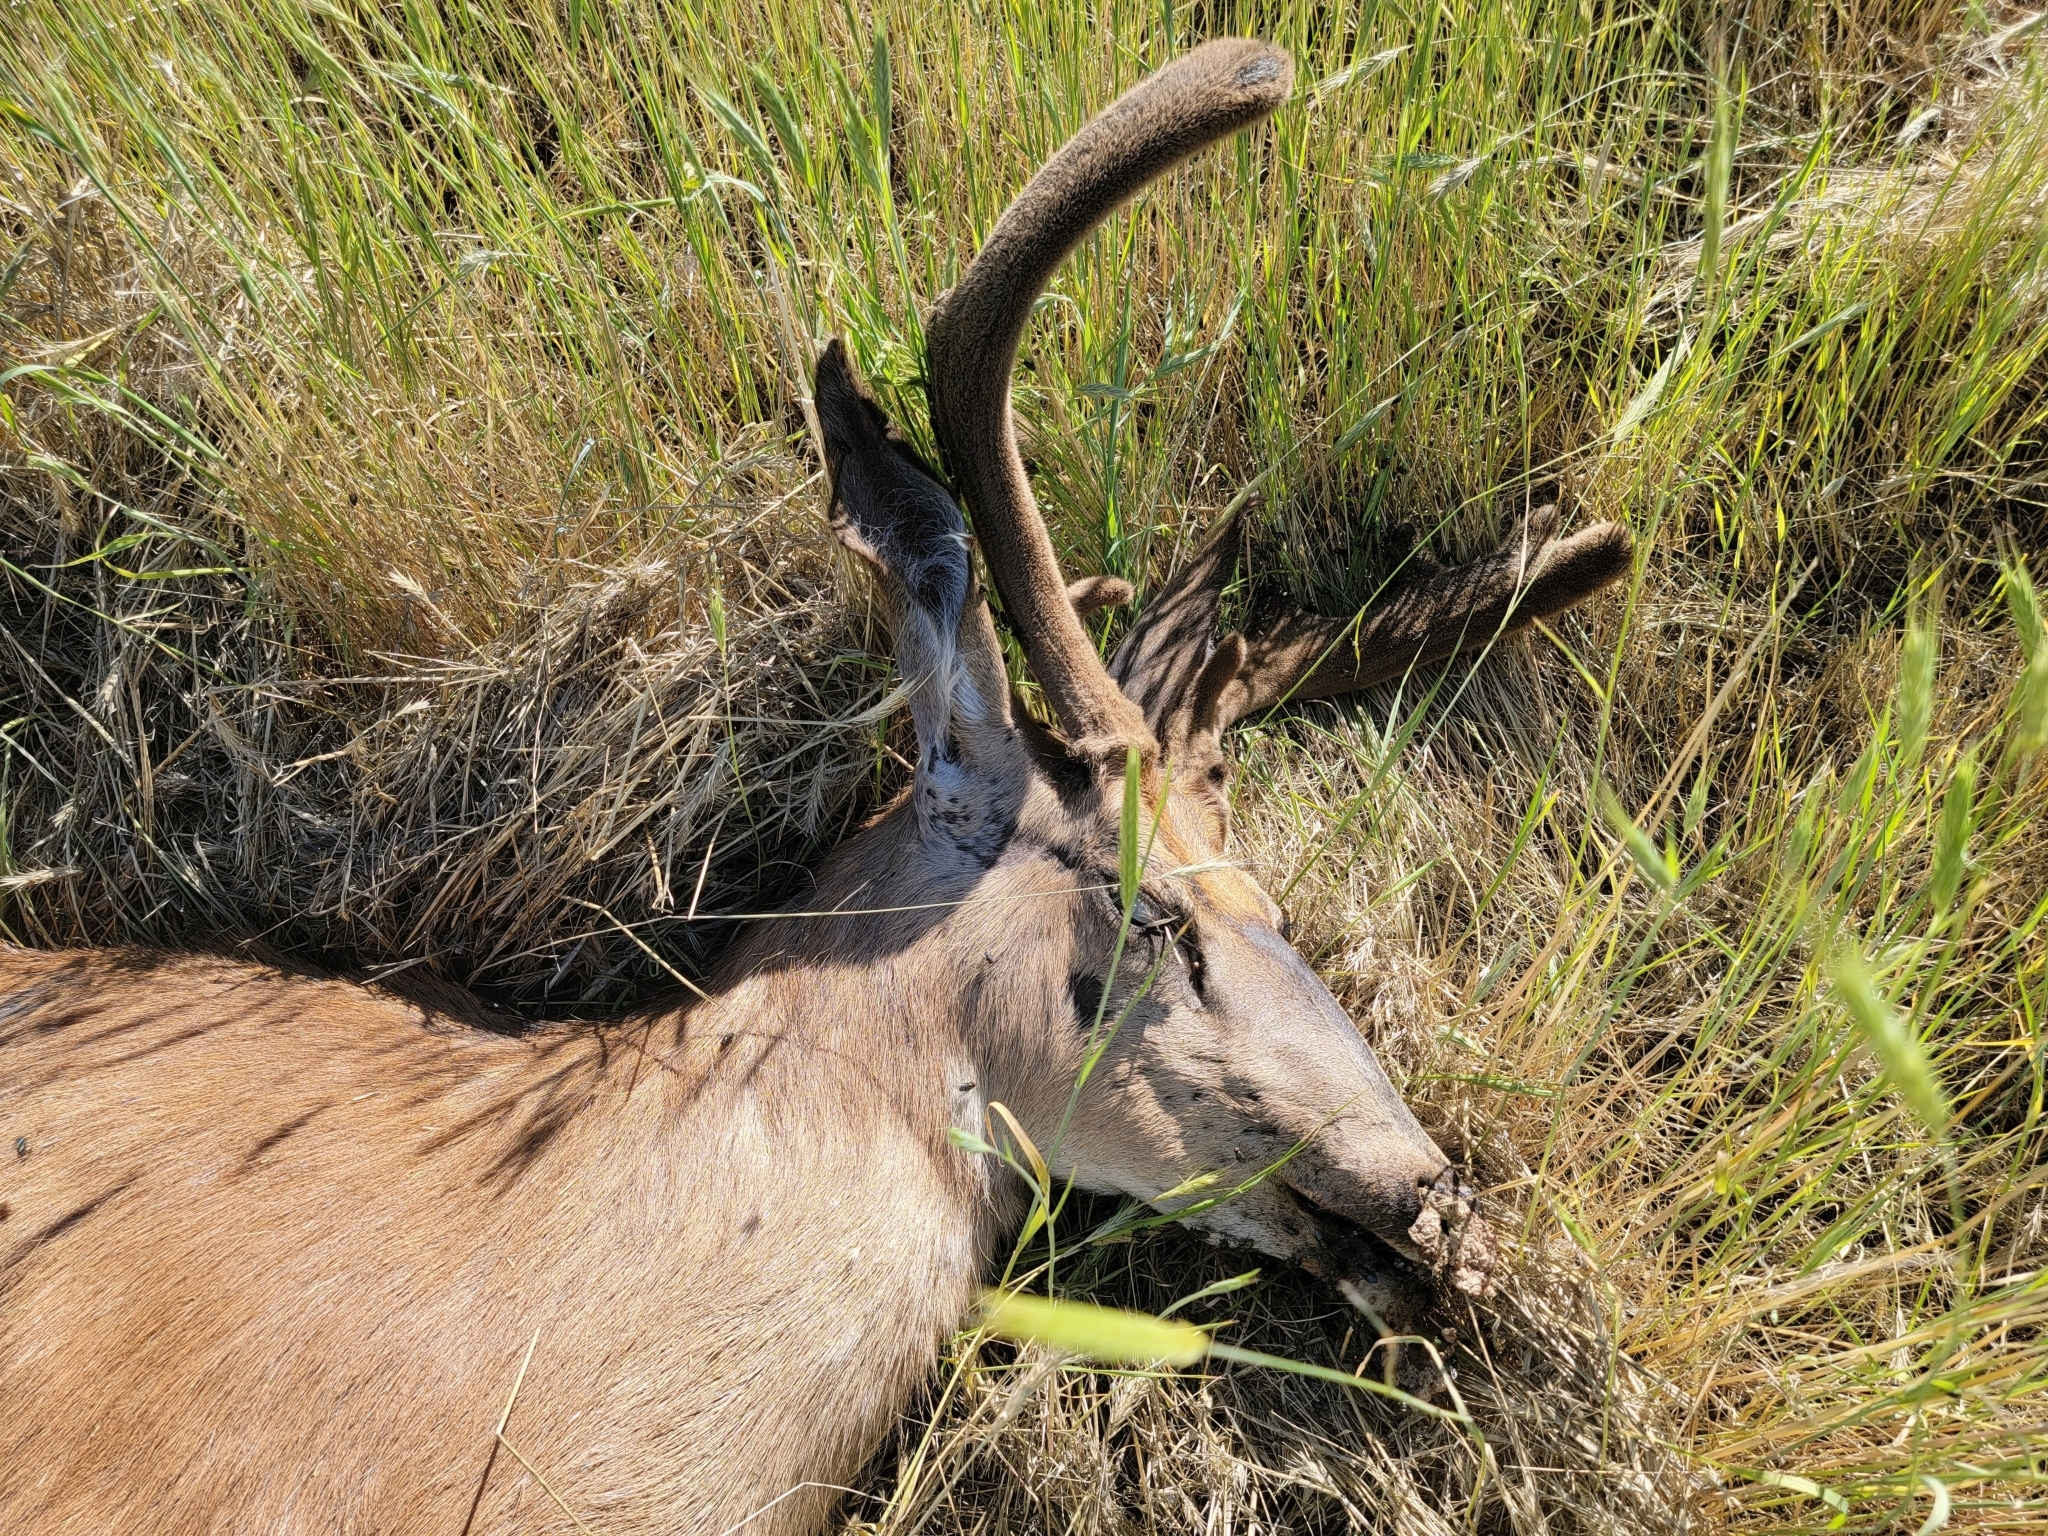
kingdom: Animalia
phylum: Chordata
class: Mammalia
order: Artiodactyla
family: Cervidae
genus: Odocoileus
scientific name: Odocoileus hemionus
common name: Mule deer
